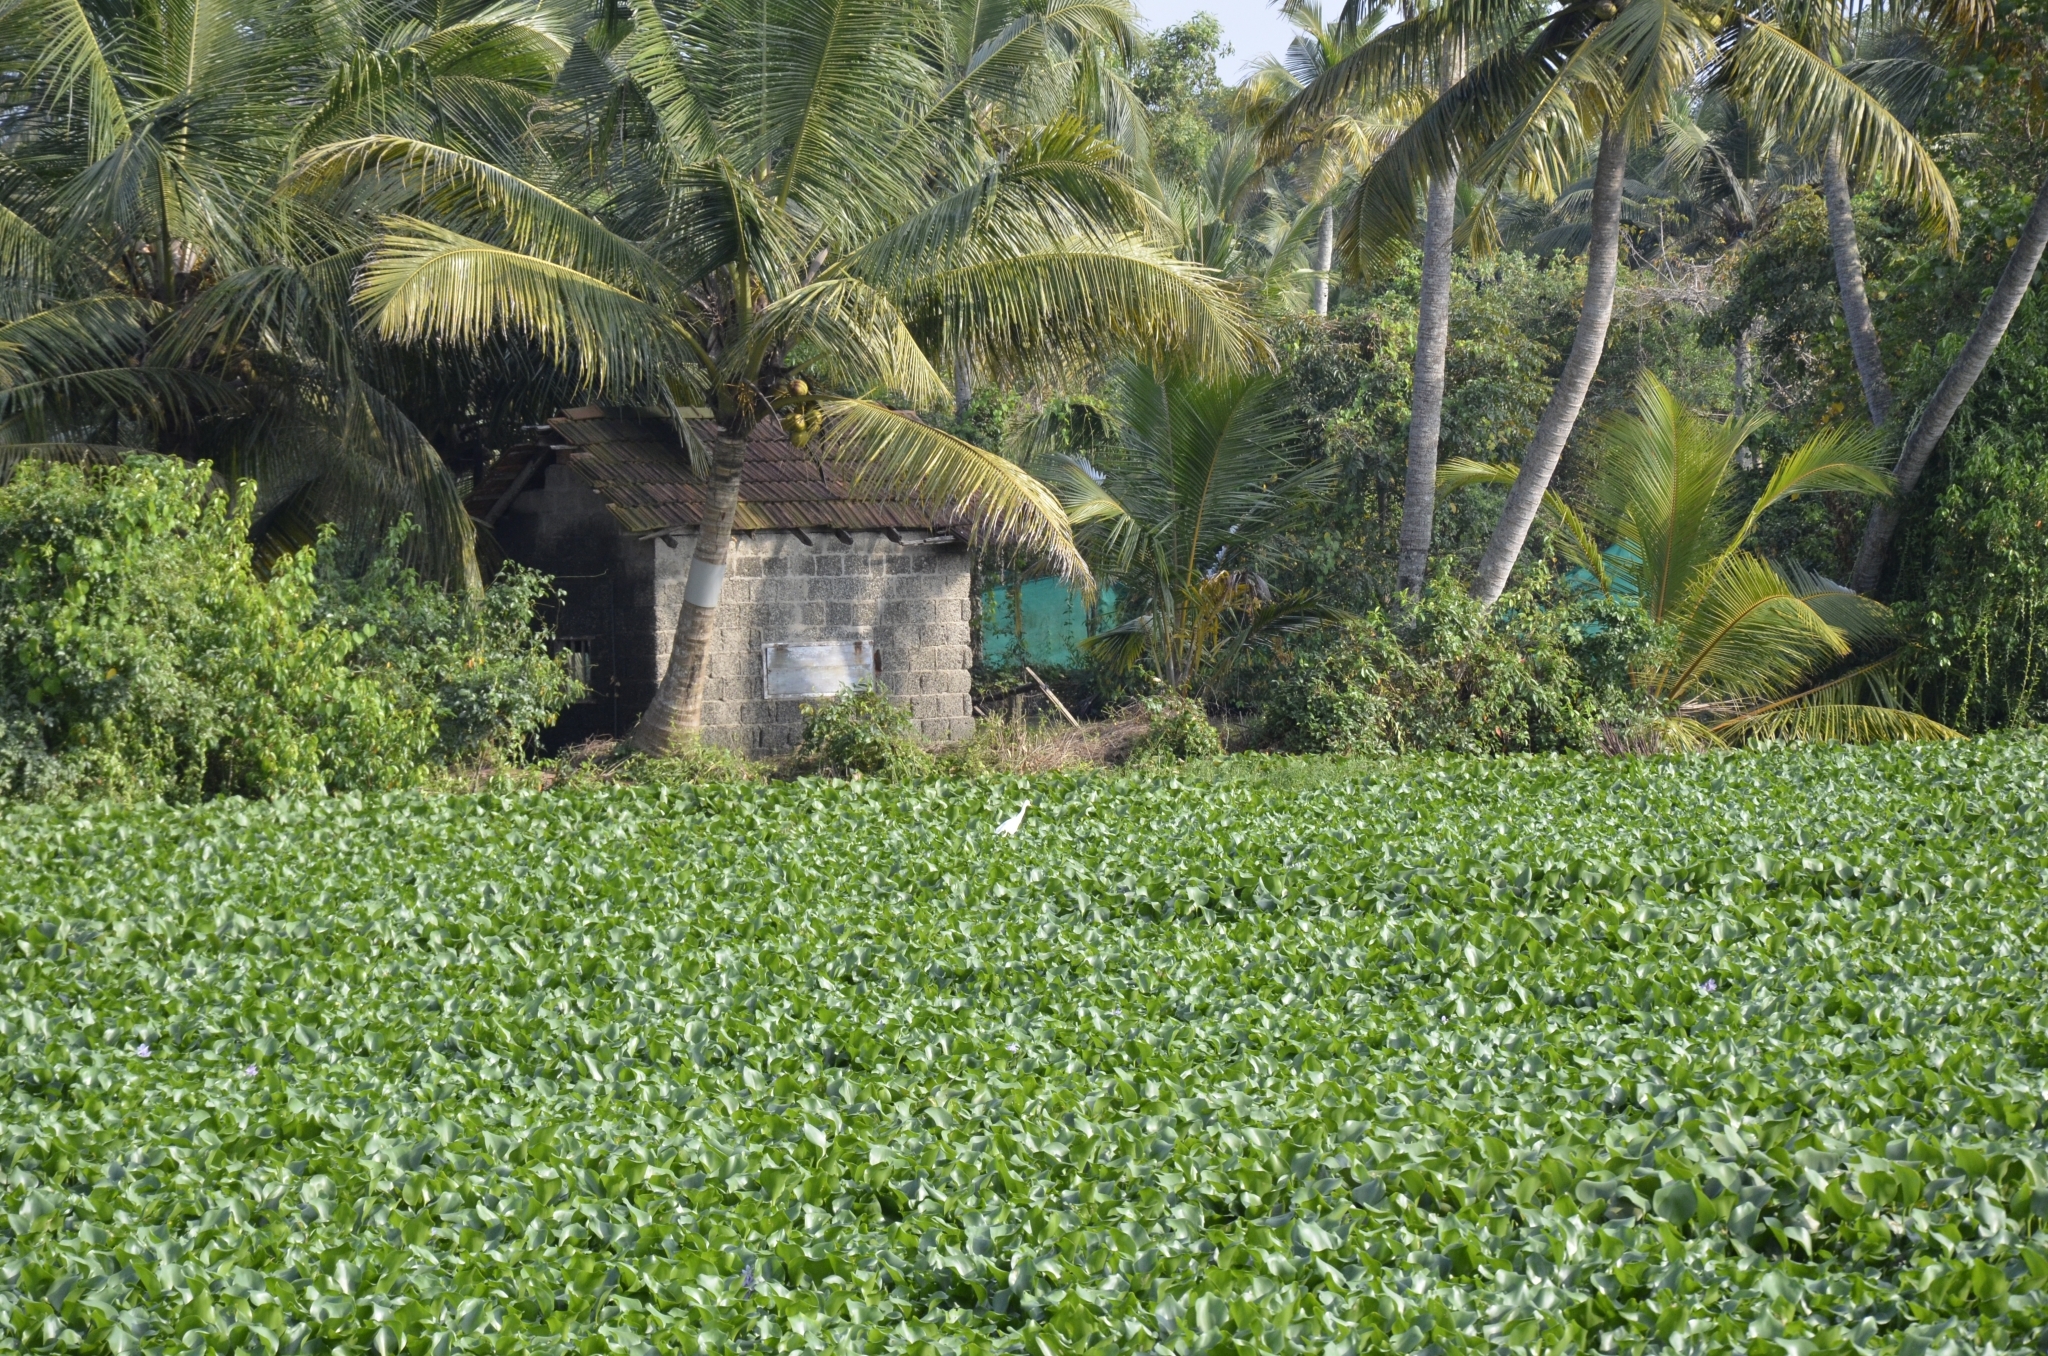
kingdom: Plantae
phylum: Tracheophyta
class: Liliopsida
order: Commelinales
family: Pontederiaceae
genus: Pontederia
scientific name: Pontederia crassipes
